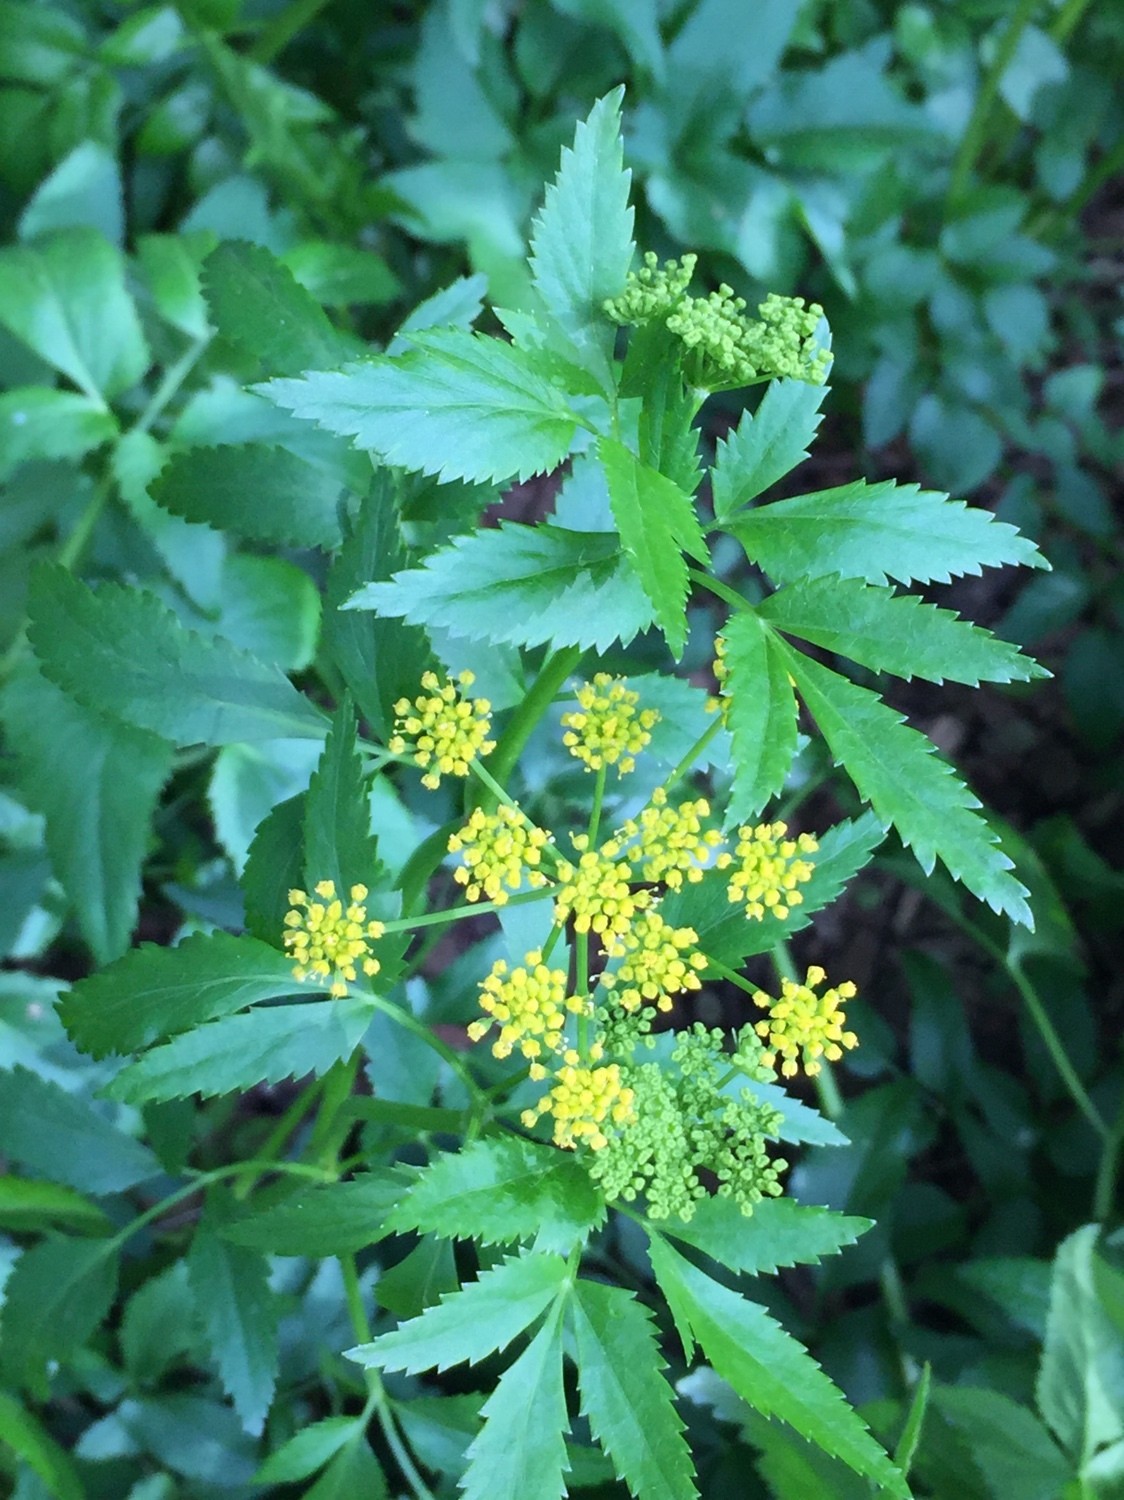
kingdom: Plantae
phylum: Tracheophyta
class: Magnoliopsida
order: Apiales
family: Apiaceae
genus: Zizia
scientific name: Zizia aurea
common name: Golden alexanders
